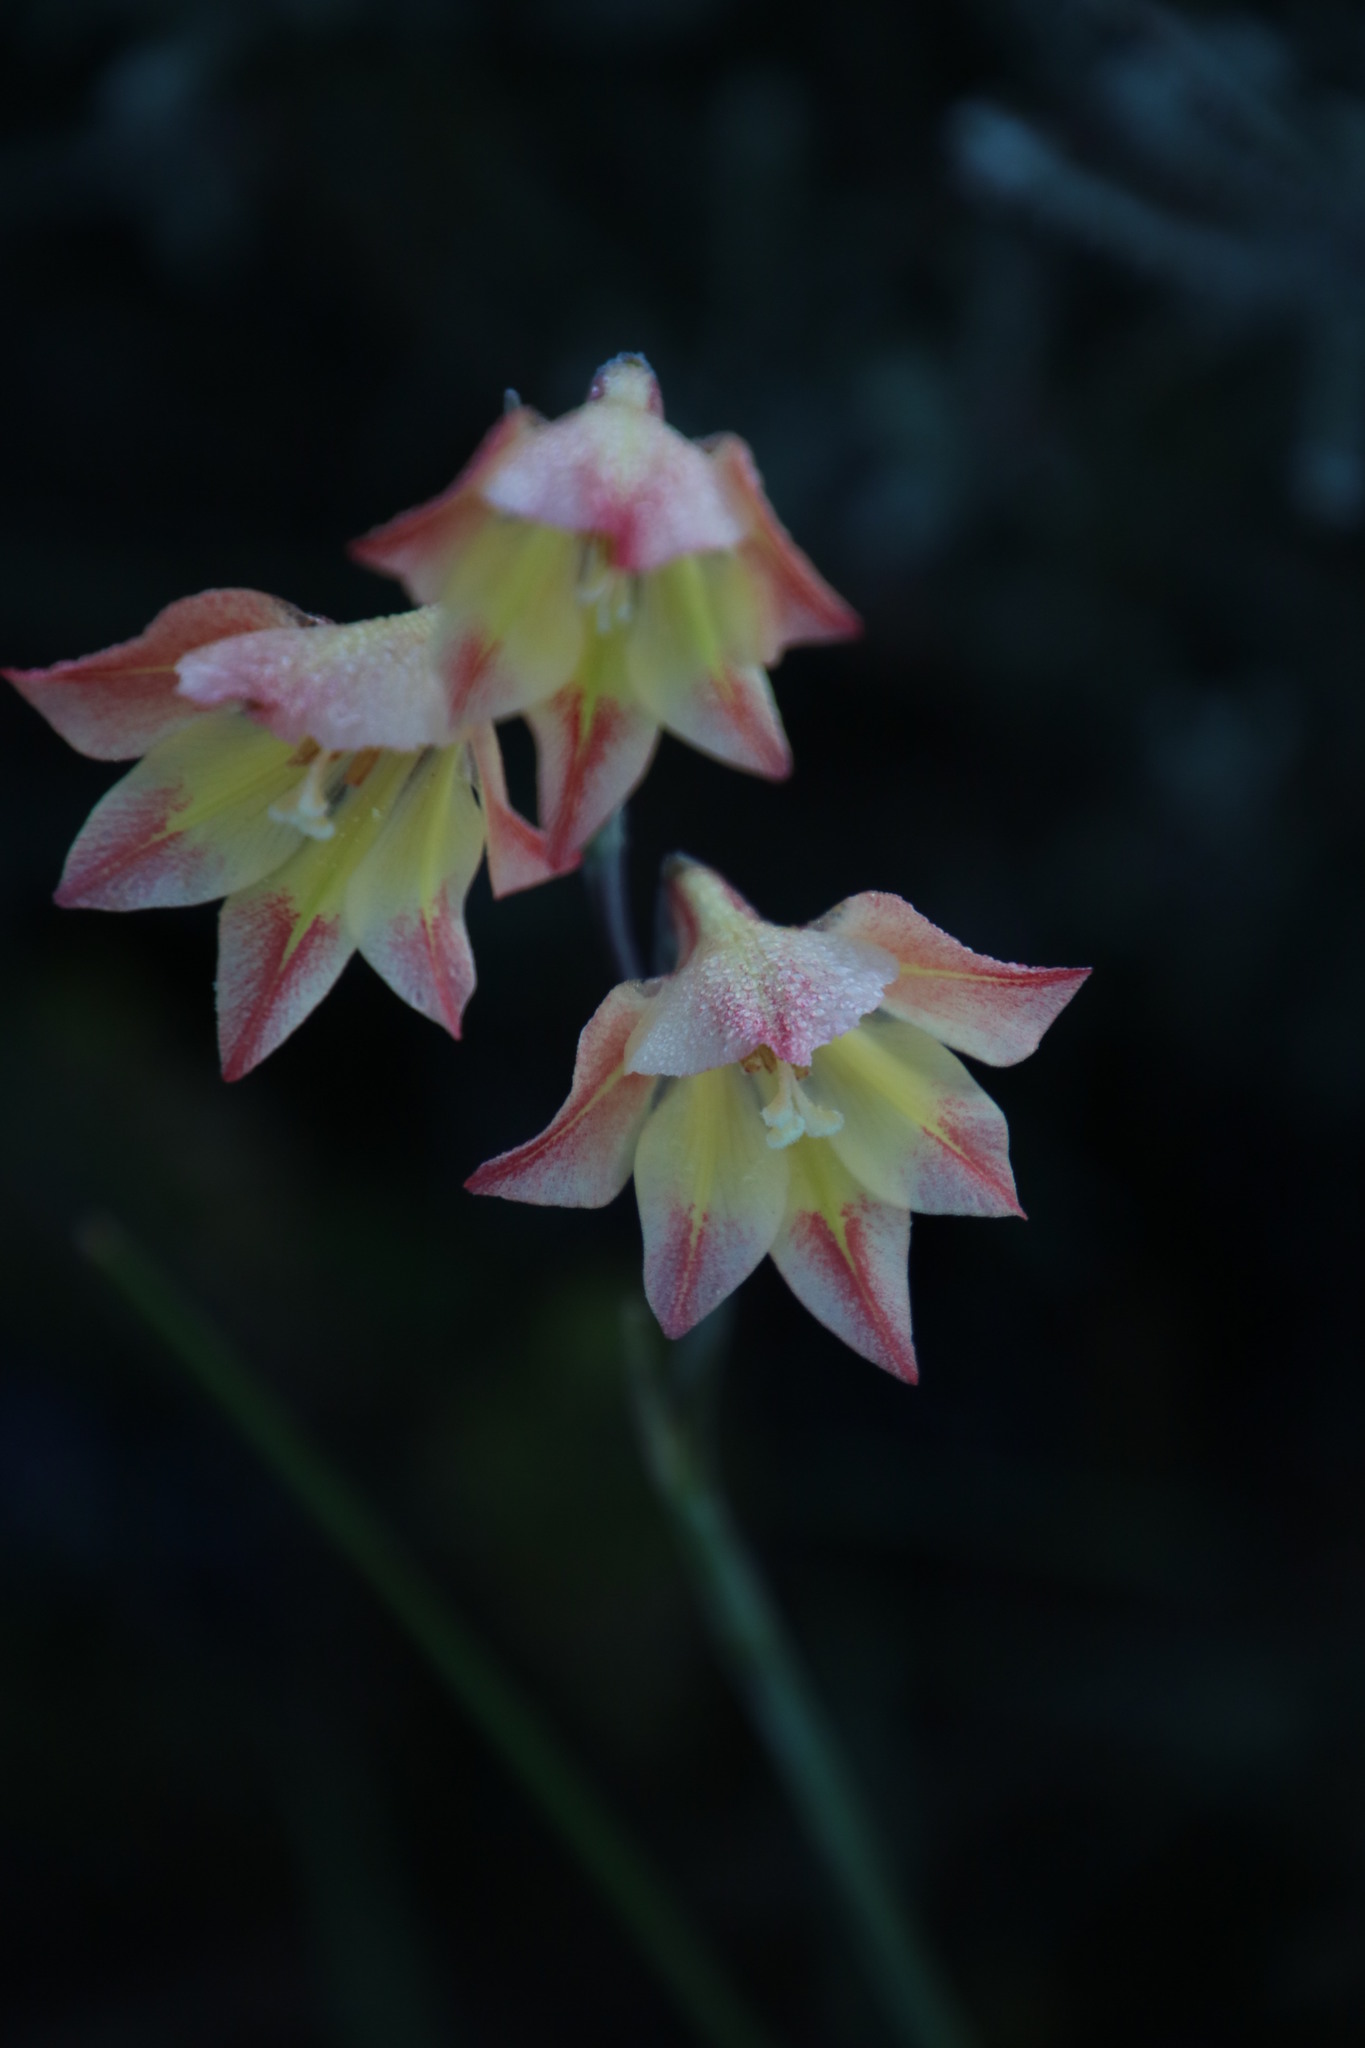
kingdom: Plantae
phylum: Tracheophyta
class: Liliopsida
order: Asparagales
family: Iridaceae
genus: Gladiolus
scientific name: Gladiolus
